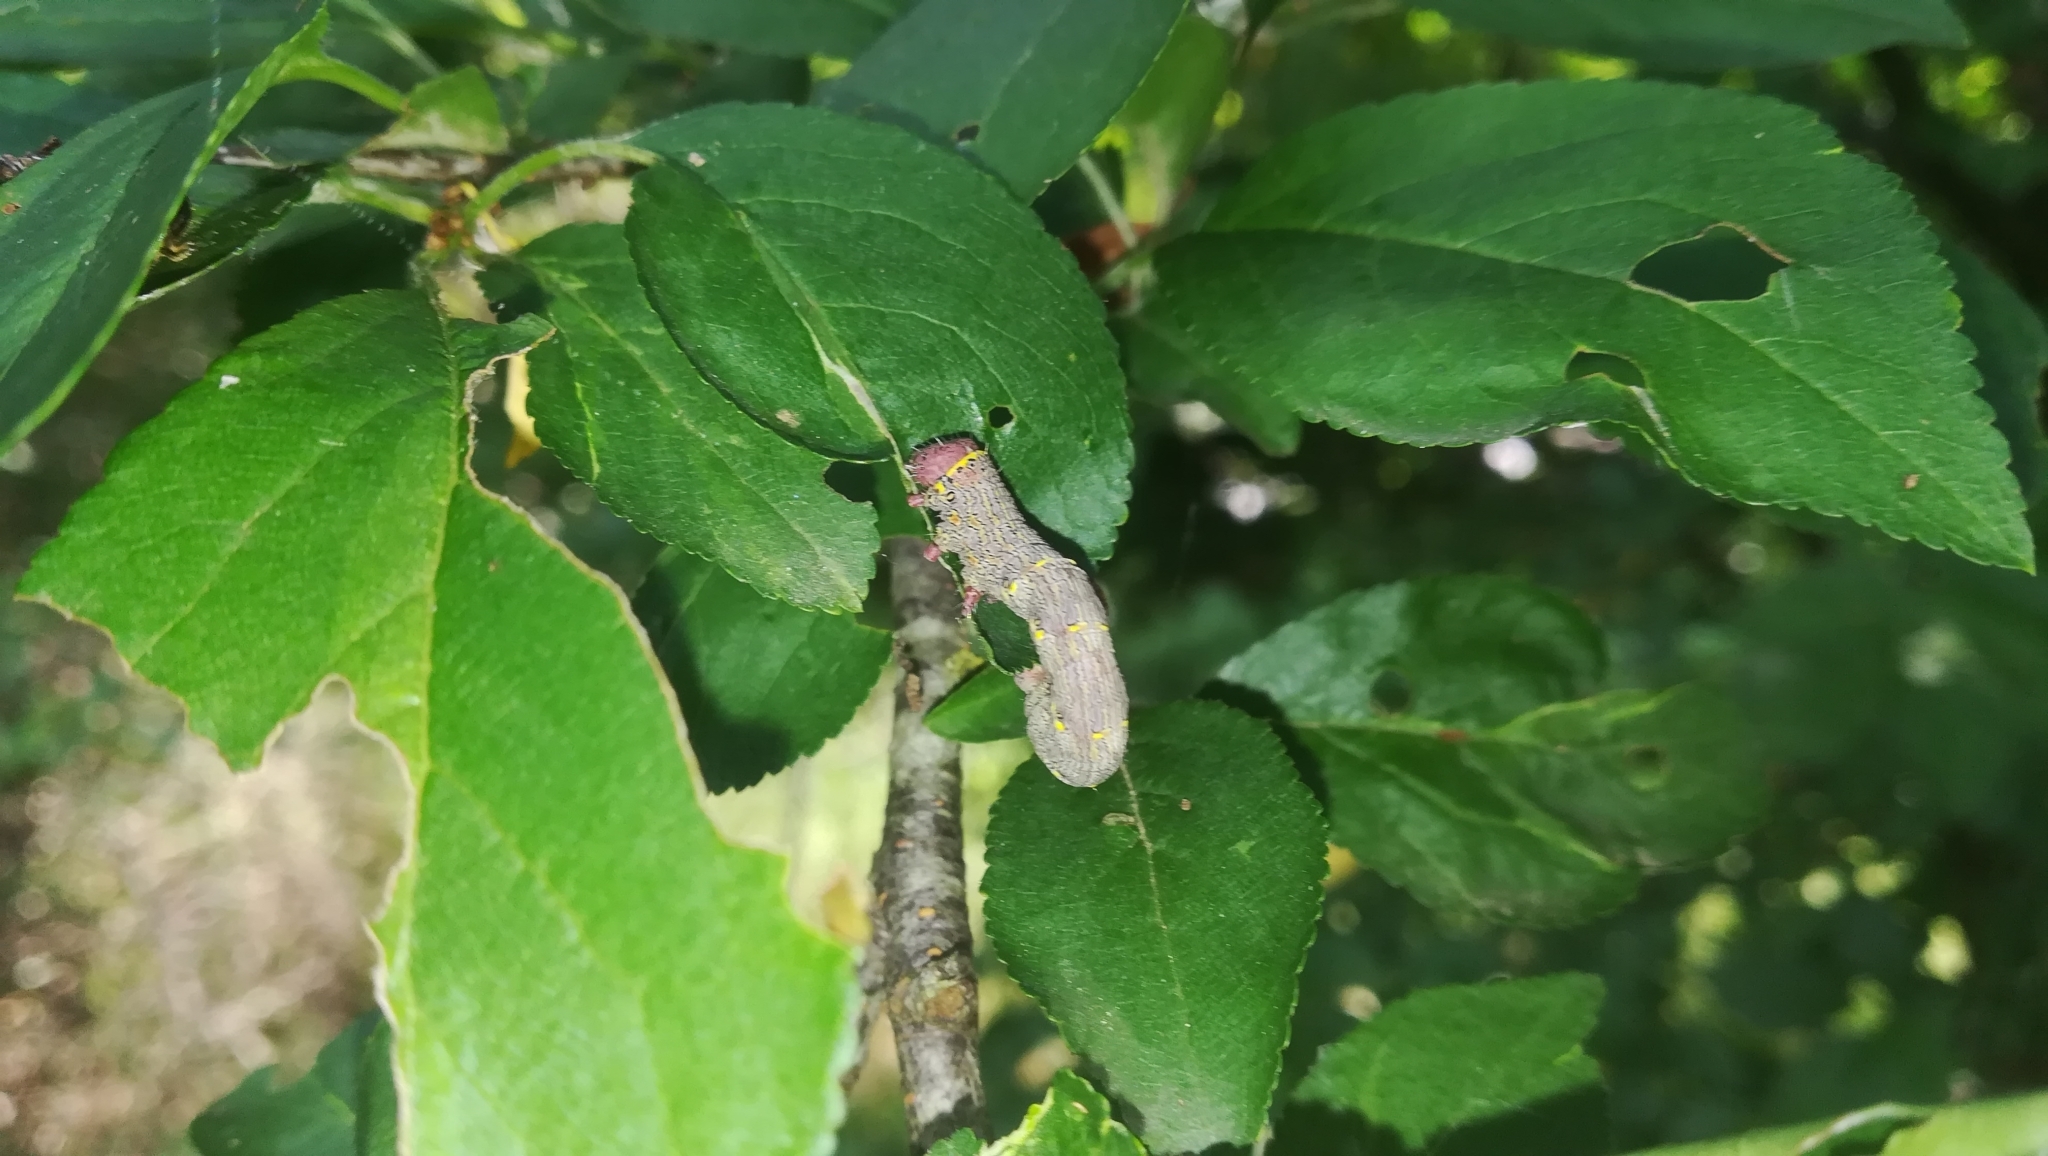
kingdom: Animalia
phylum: Arthropoda
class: Insecta
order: Lepidoptera
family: Geometridae
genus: Lycia
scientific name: Lycia hirtaria
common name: Brindled beauty
